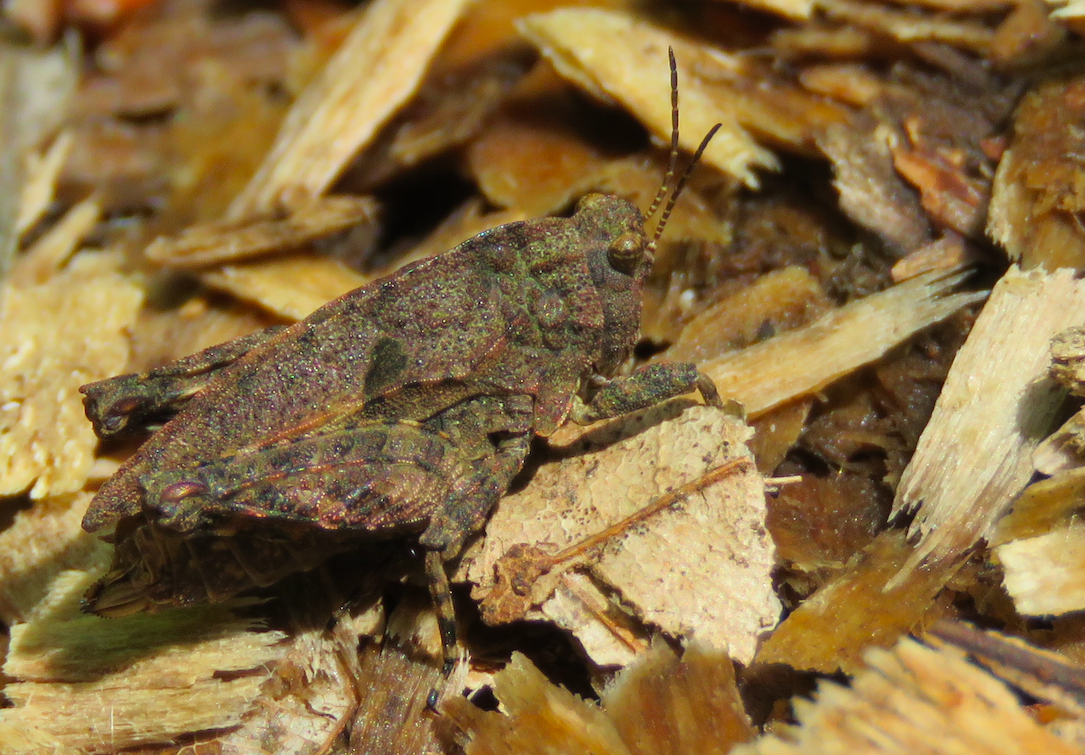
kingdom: Animalia
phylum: Arthropoda
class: Insecta
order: Orthoptera
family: Tetrigidae
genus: Tetrix
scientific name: Tetrix transsylvanica
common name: Transsylvanian wingless groundhopper
